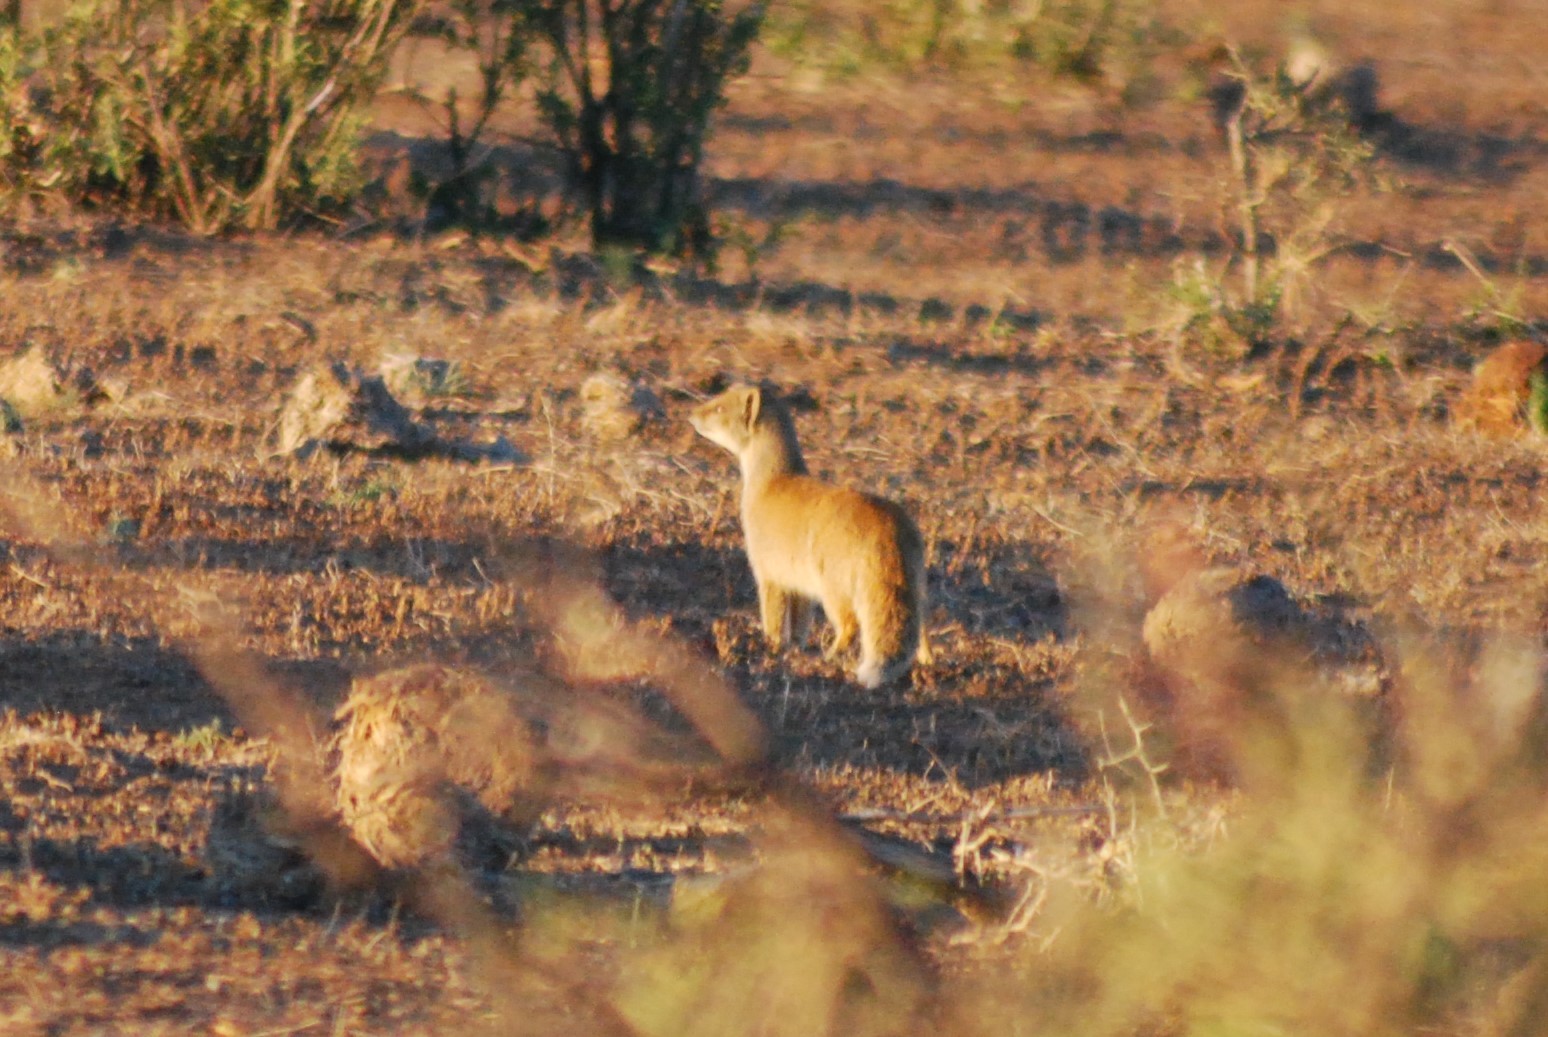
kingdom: Animalia
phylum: Chordata
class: Mammalia
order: Carnivora
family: Herpestidae
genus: Cynictis
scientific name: Cynictis penicillata
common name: Yellow mongoose
